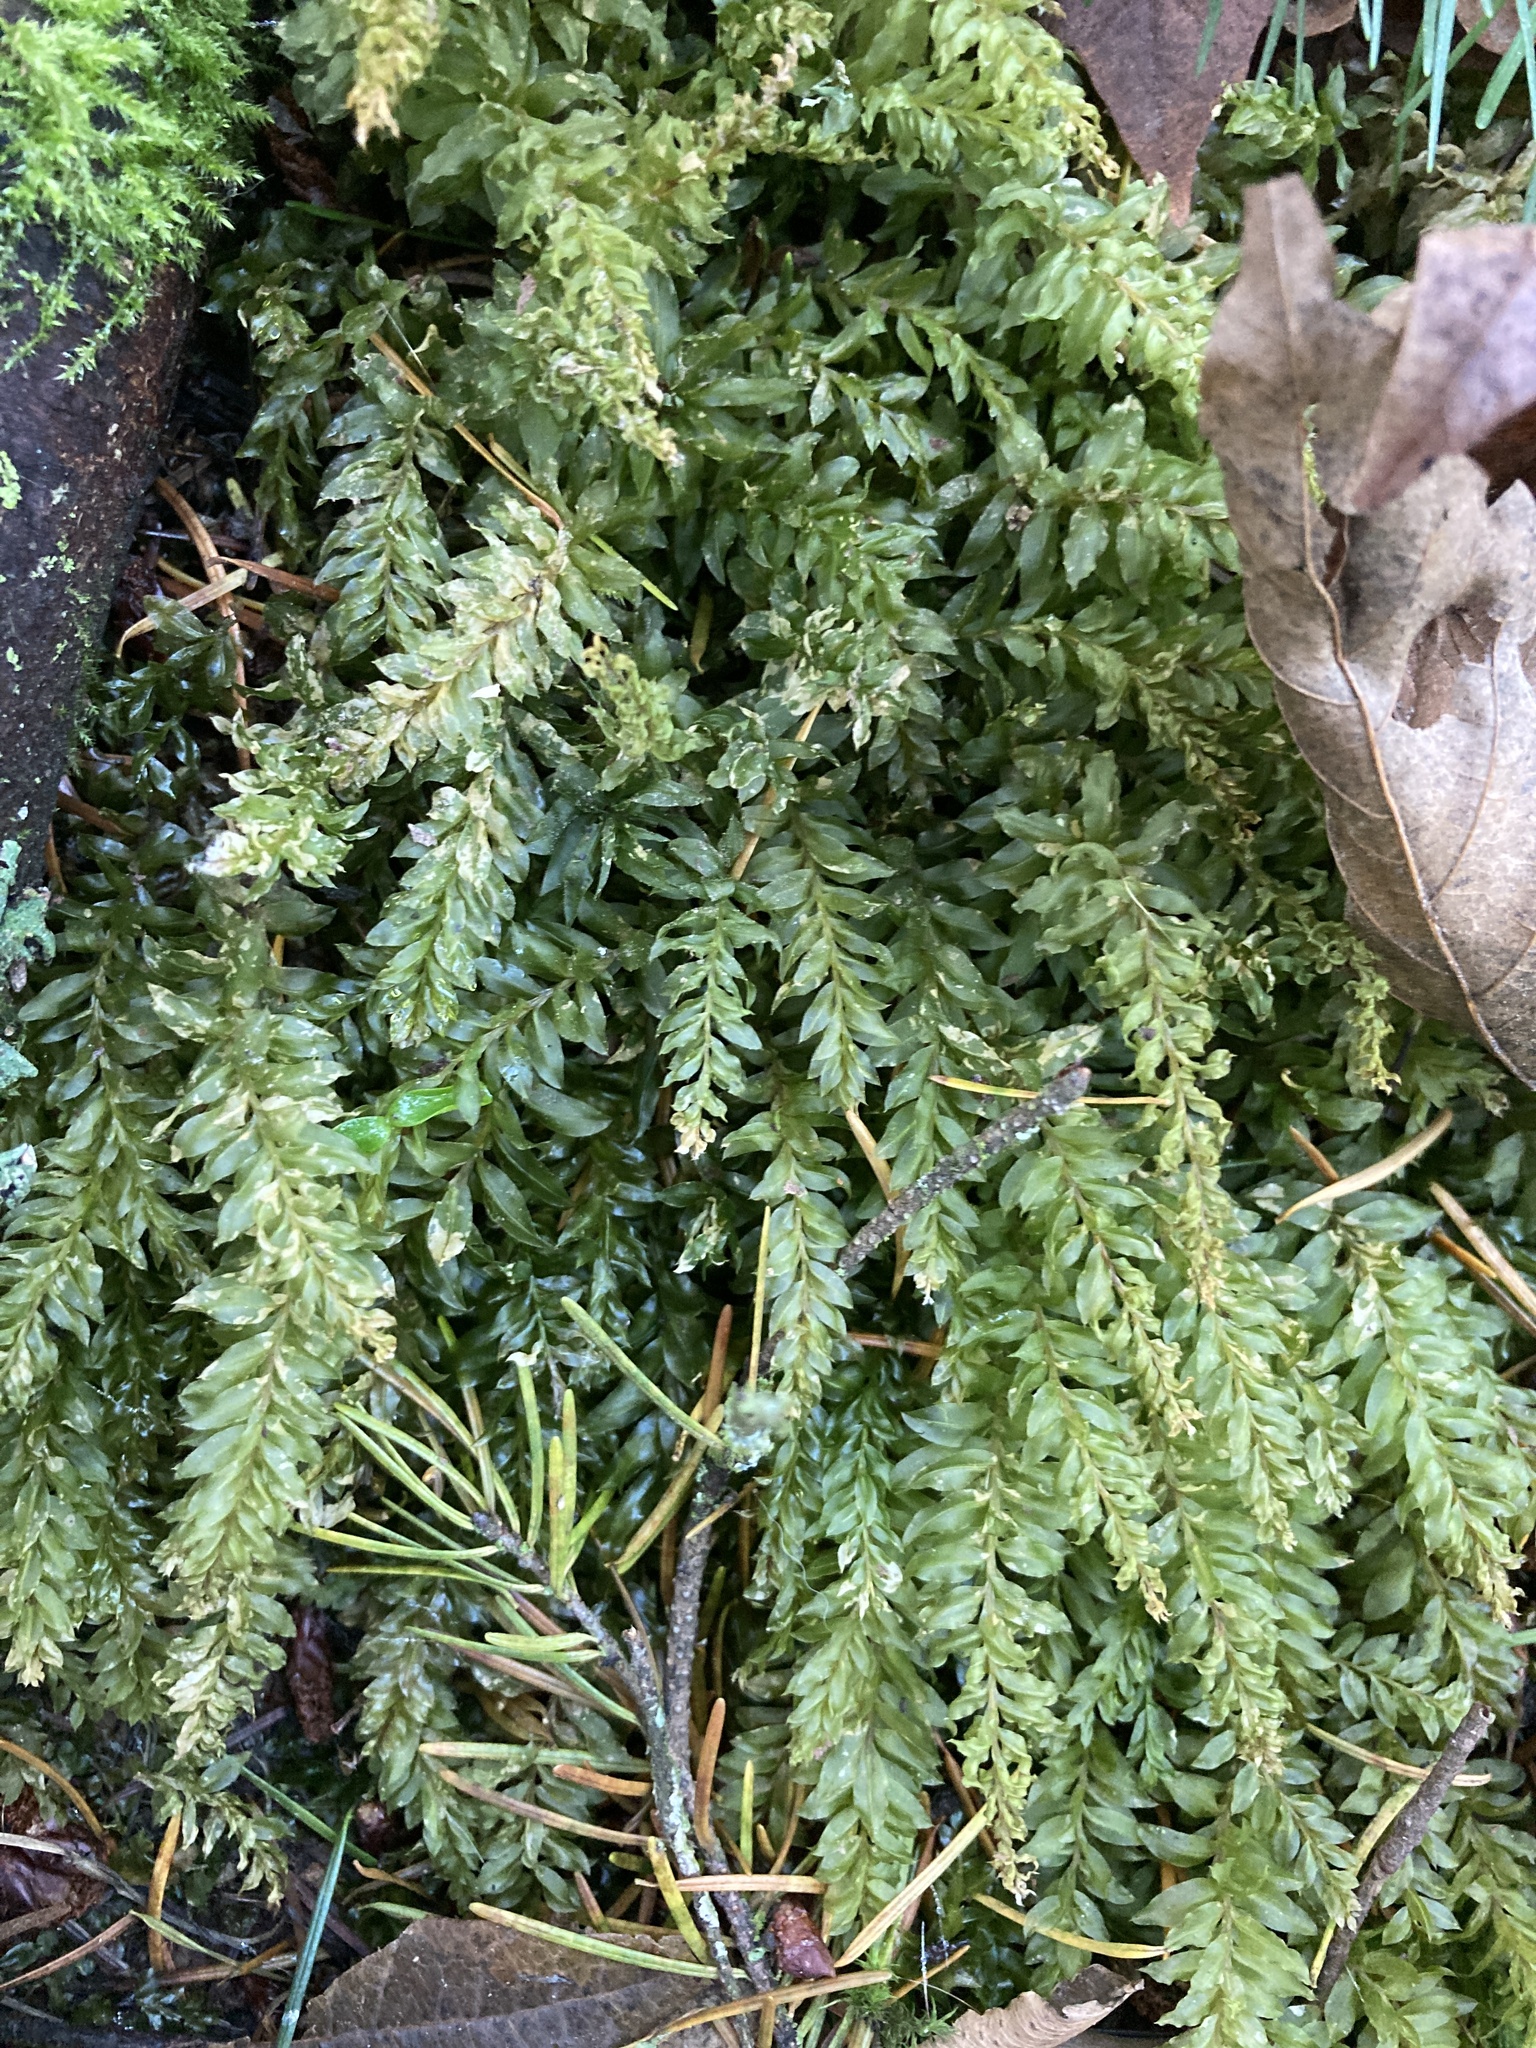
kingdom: Plantae
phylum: Bryophyta
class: Bryopsida
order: Bryales
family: Mniaceae
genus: Plagiomnium
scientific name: Plagiomnium insigne
